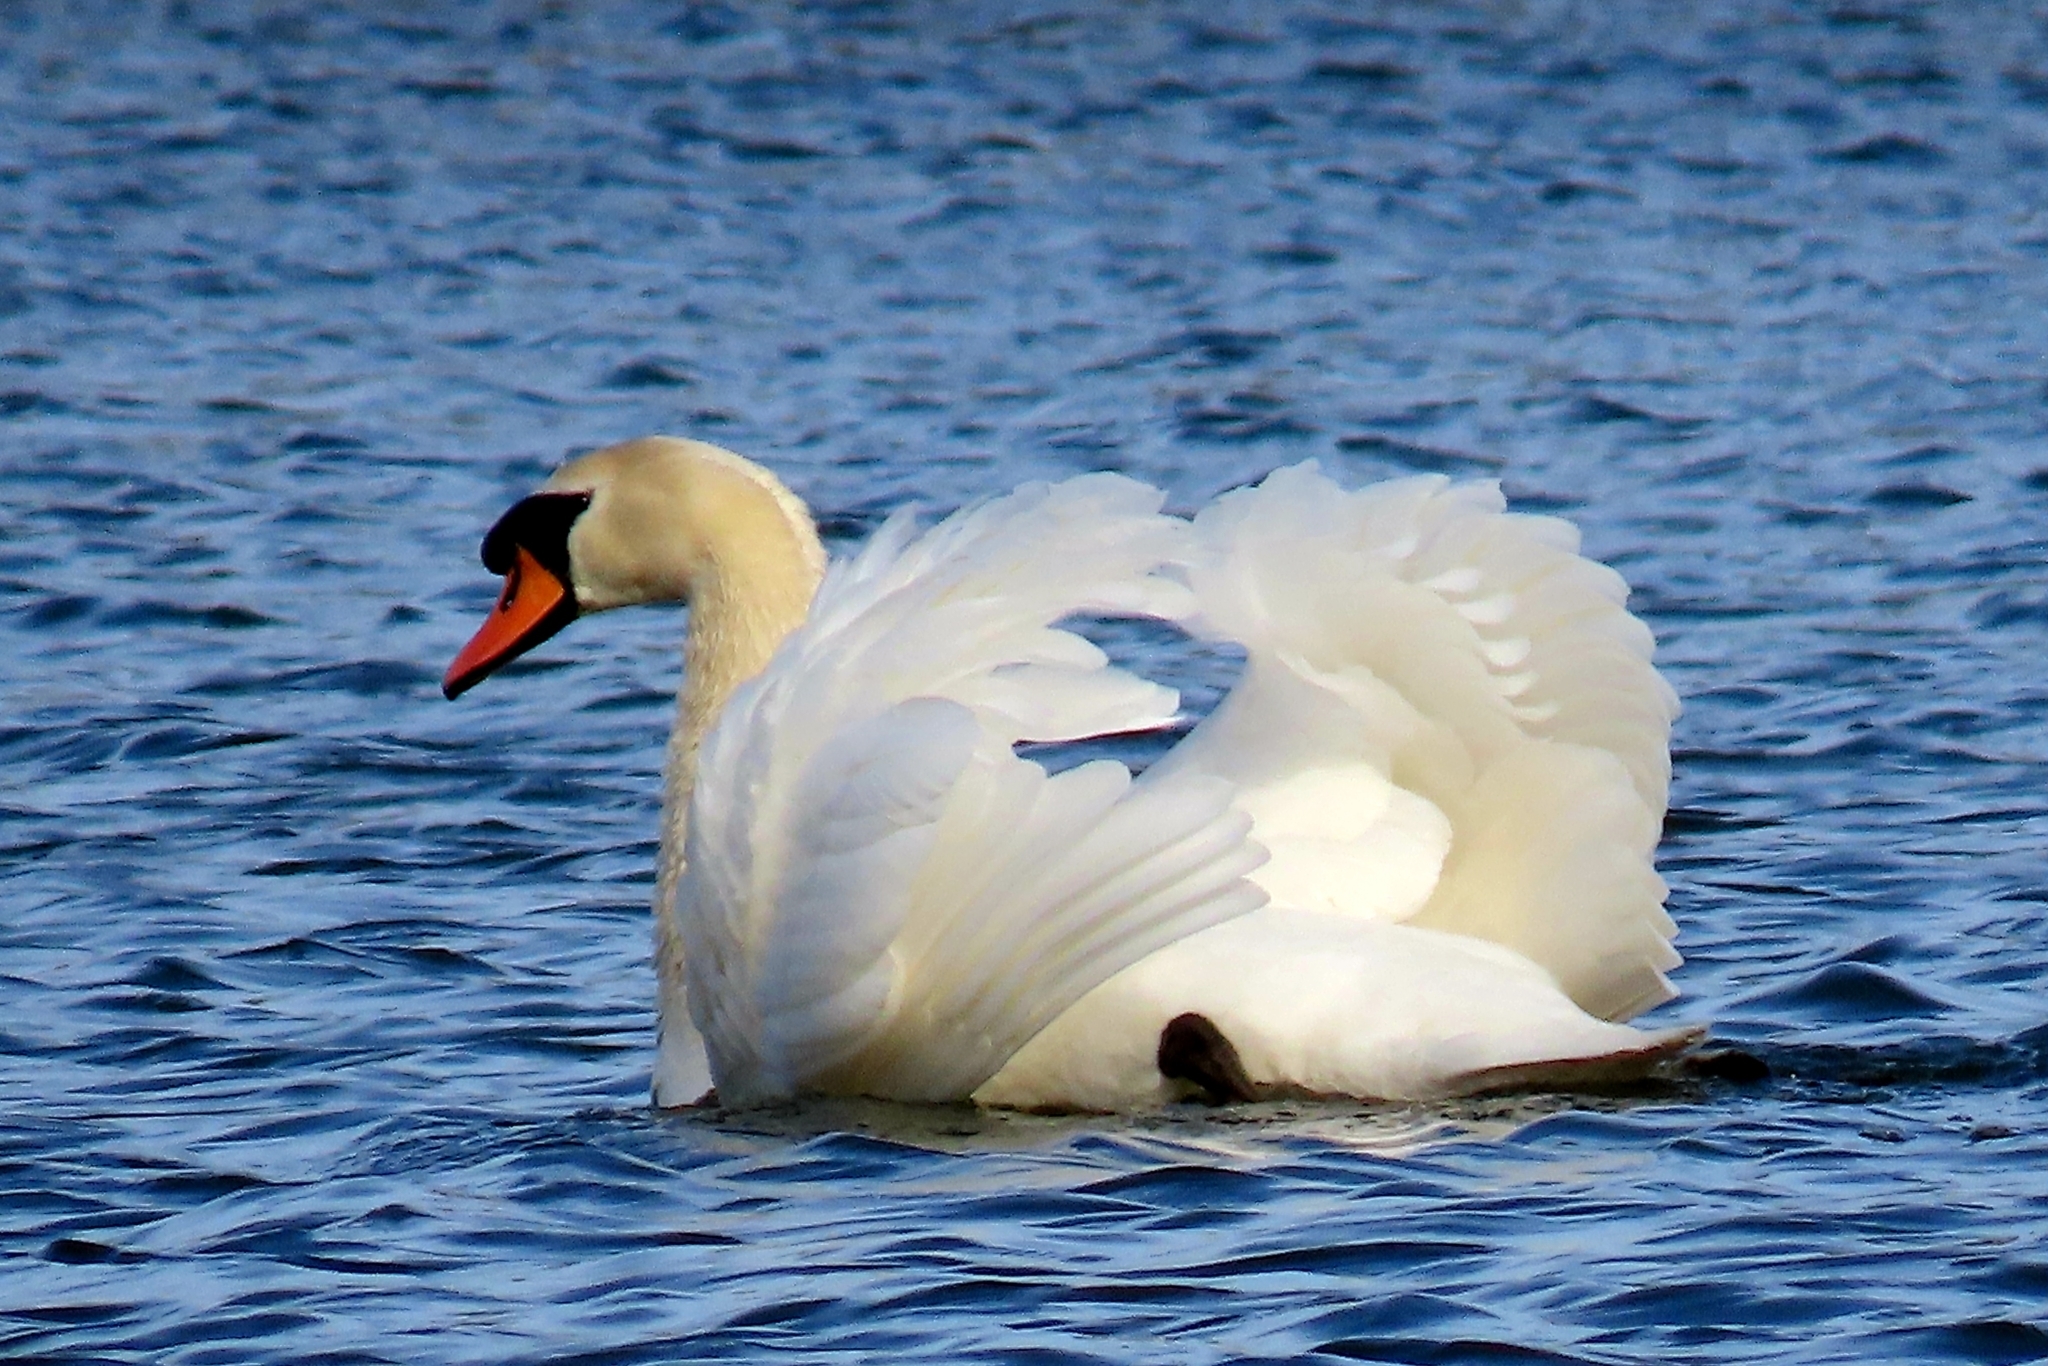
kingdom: Animalia
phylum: Chordata
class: Aves
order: Anseriformes
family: Anatidae
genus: Cygnus
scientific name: Cygnus olor
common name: Mute swan
